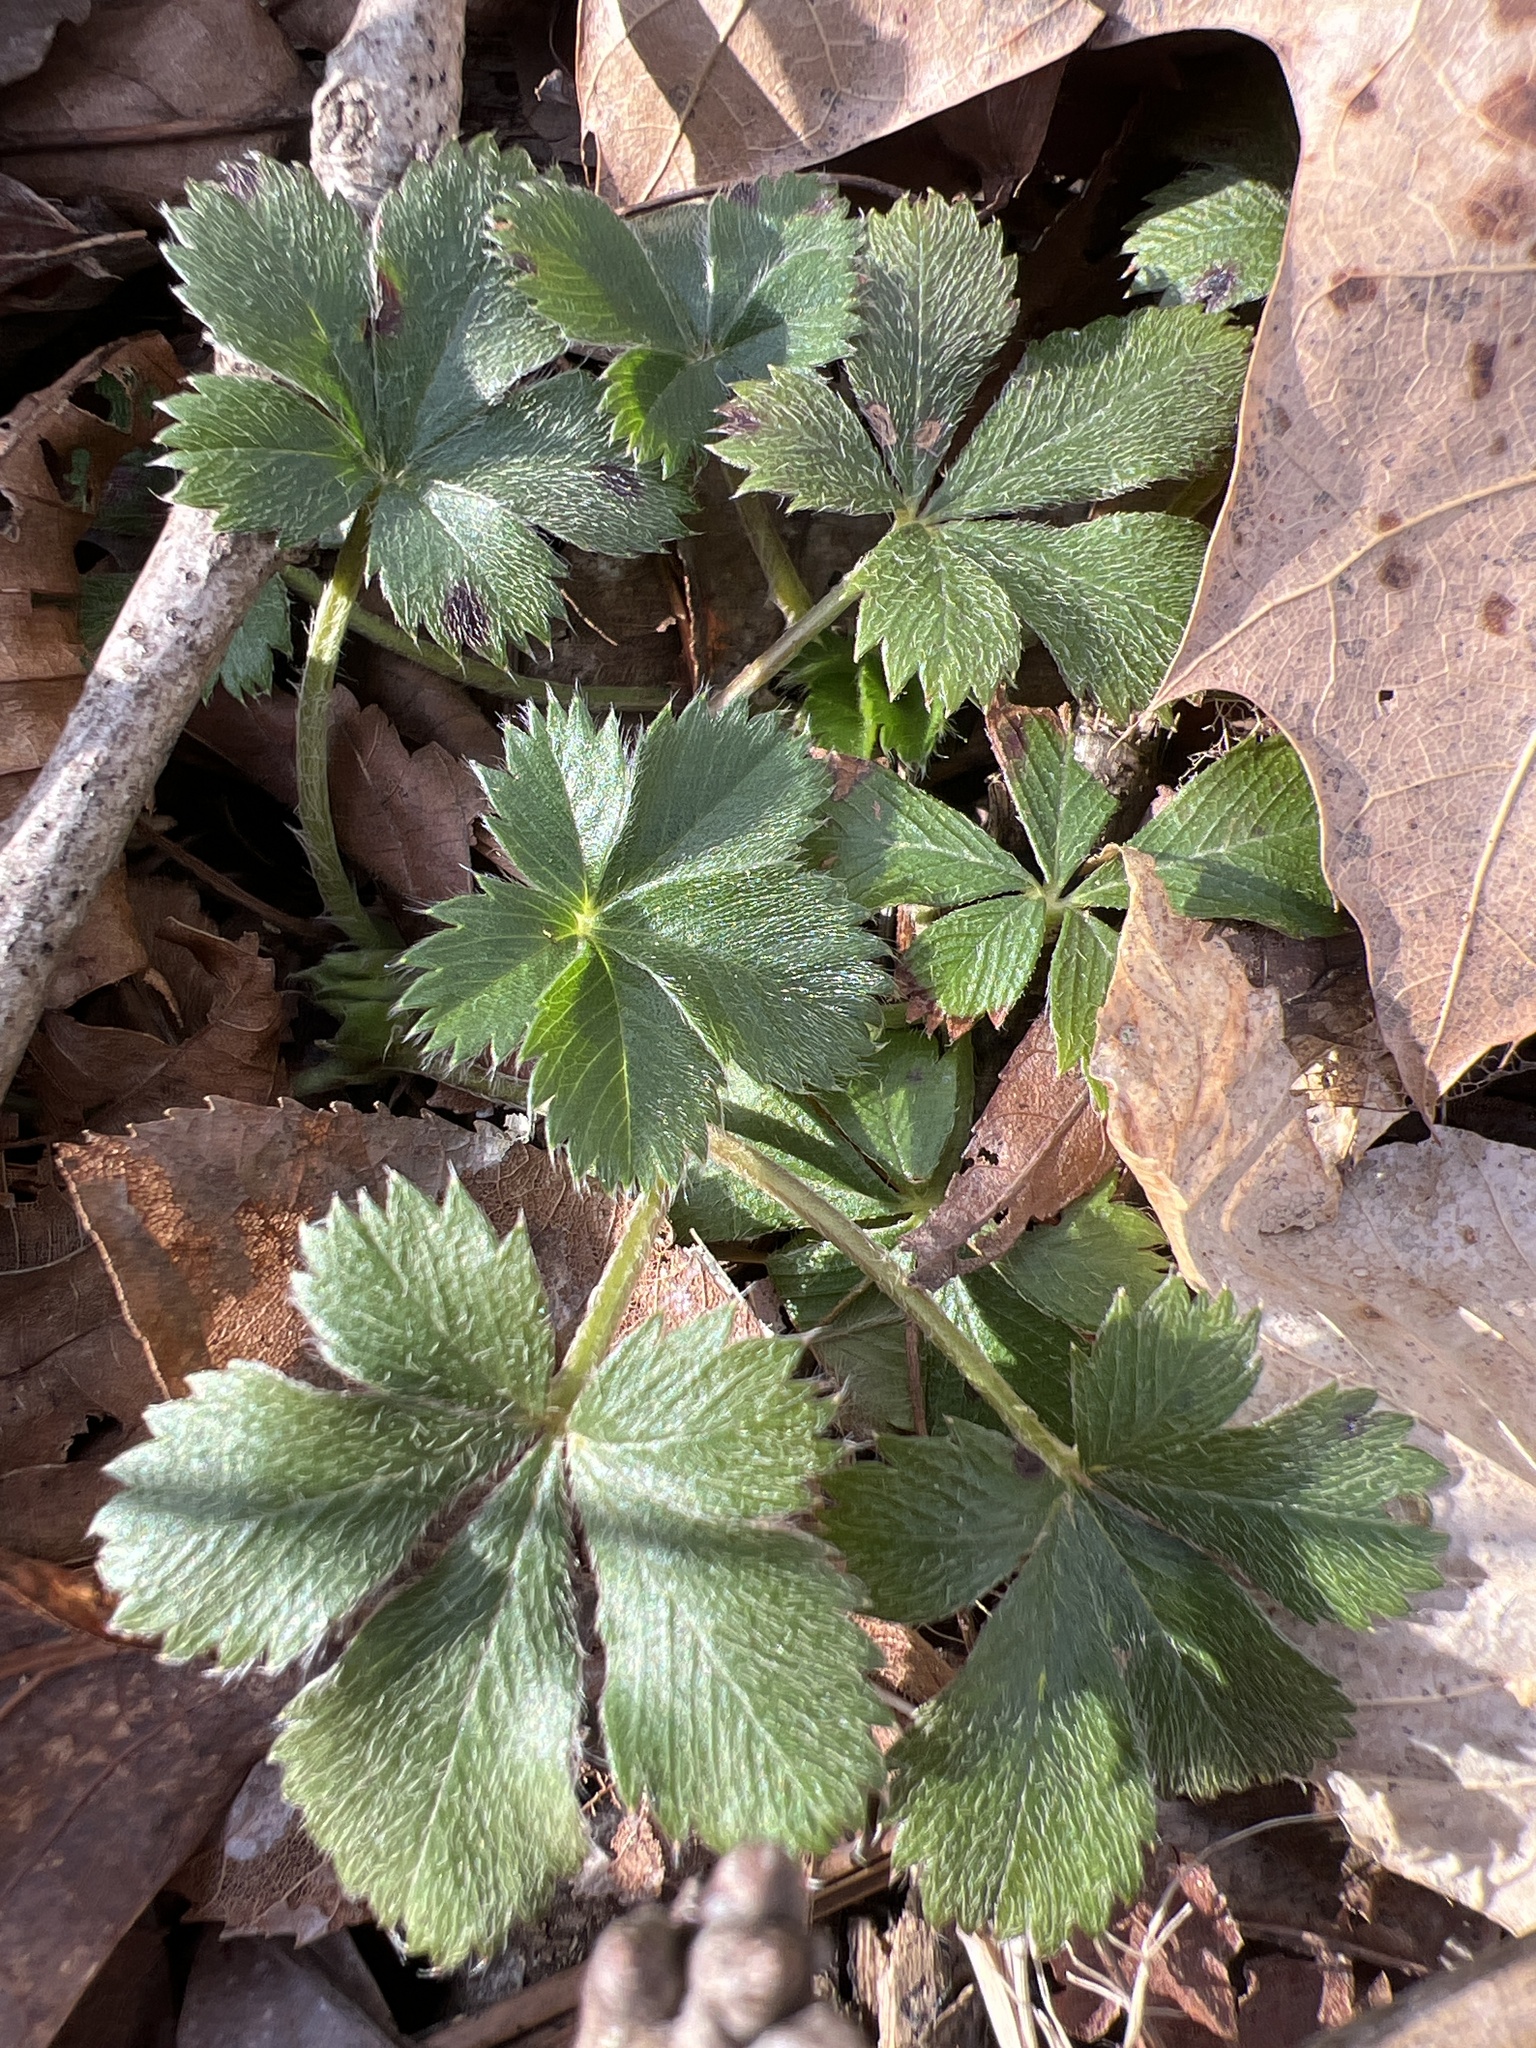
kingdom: Plantae
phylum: Tracheophyta
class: Magnoliopsida
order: Rosales
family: Rosaceae
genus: Potentilla
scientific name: Potentilla canadensis
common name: Canada cinquefoil
